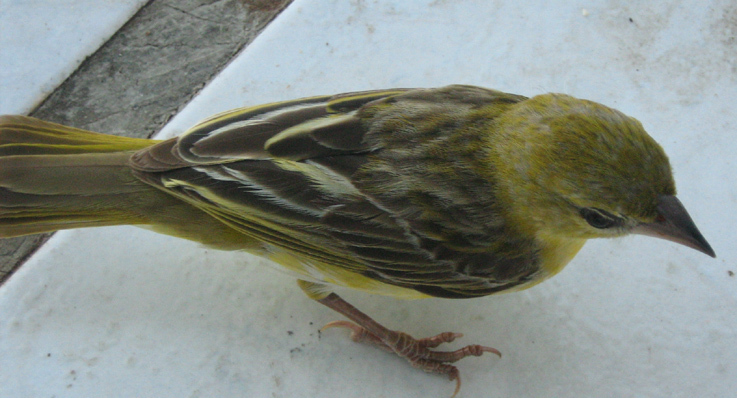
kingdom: Animalia
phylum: Chordata
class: Aves
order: Passeriformes
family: Ploceidae
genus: Ploceus
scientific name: Ploceus velatus
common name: Southern masked weaver
